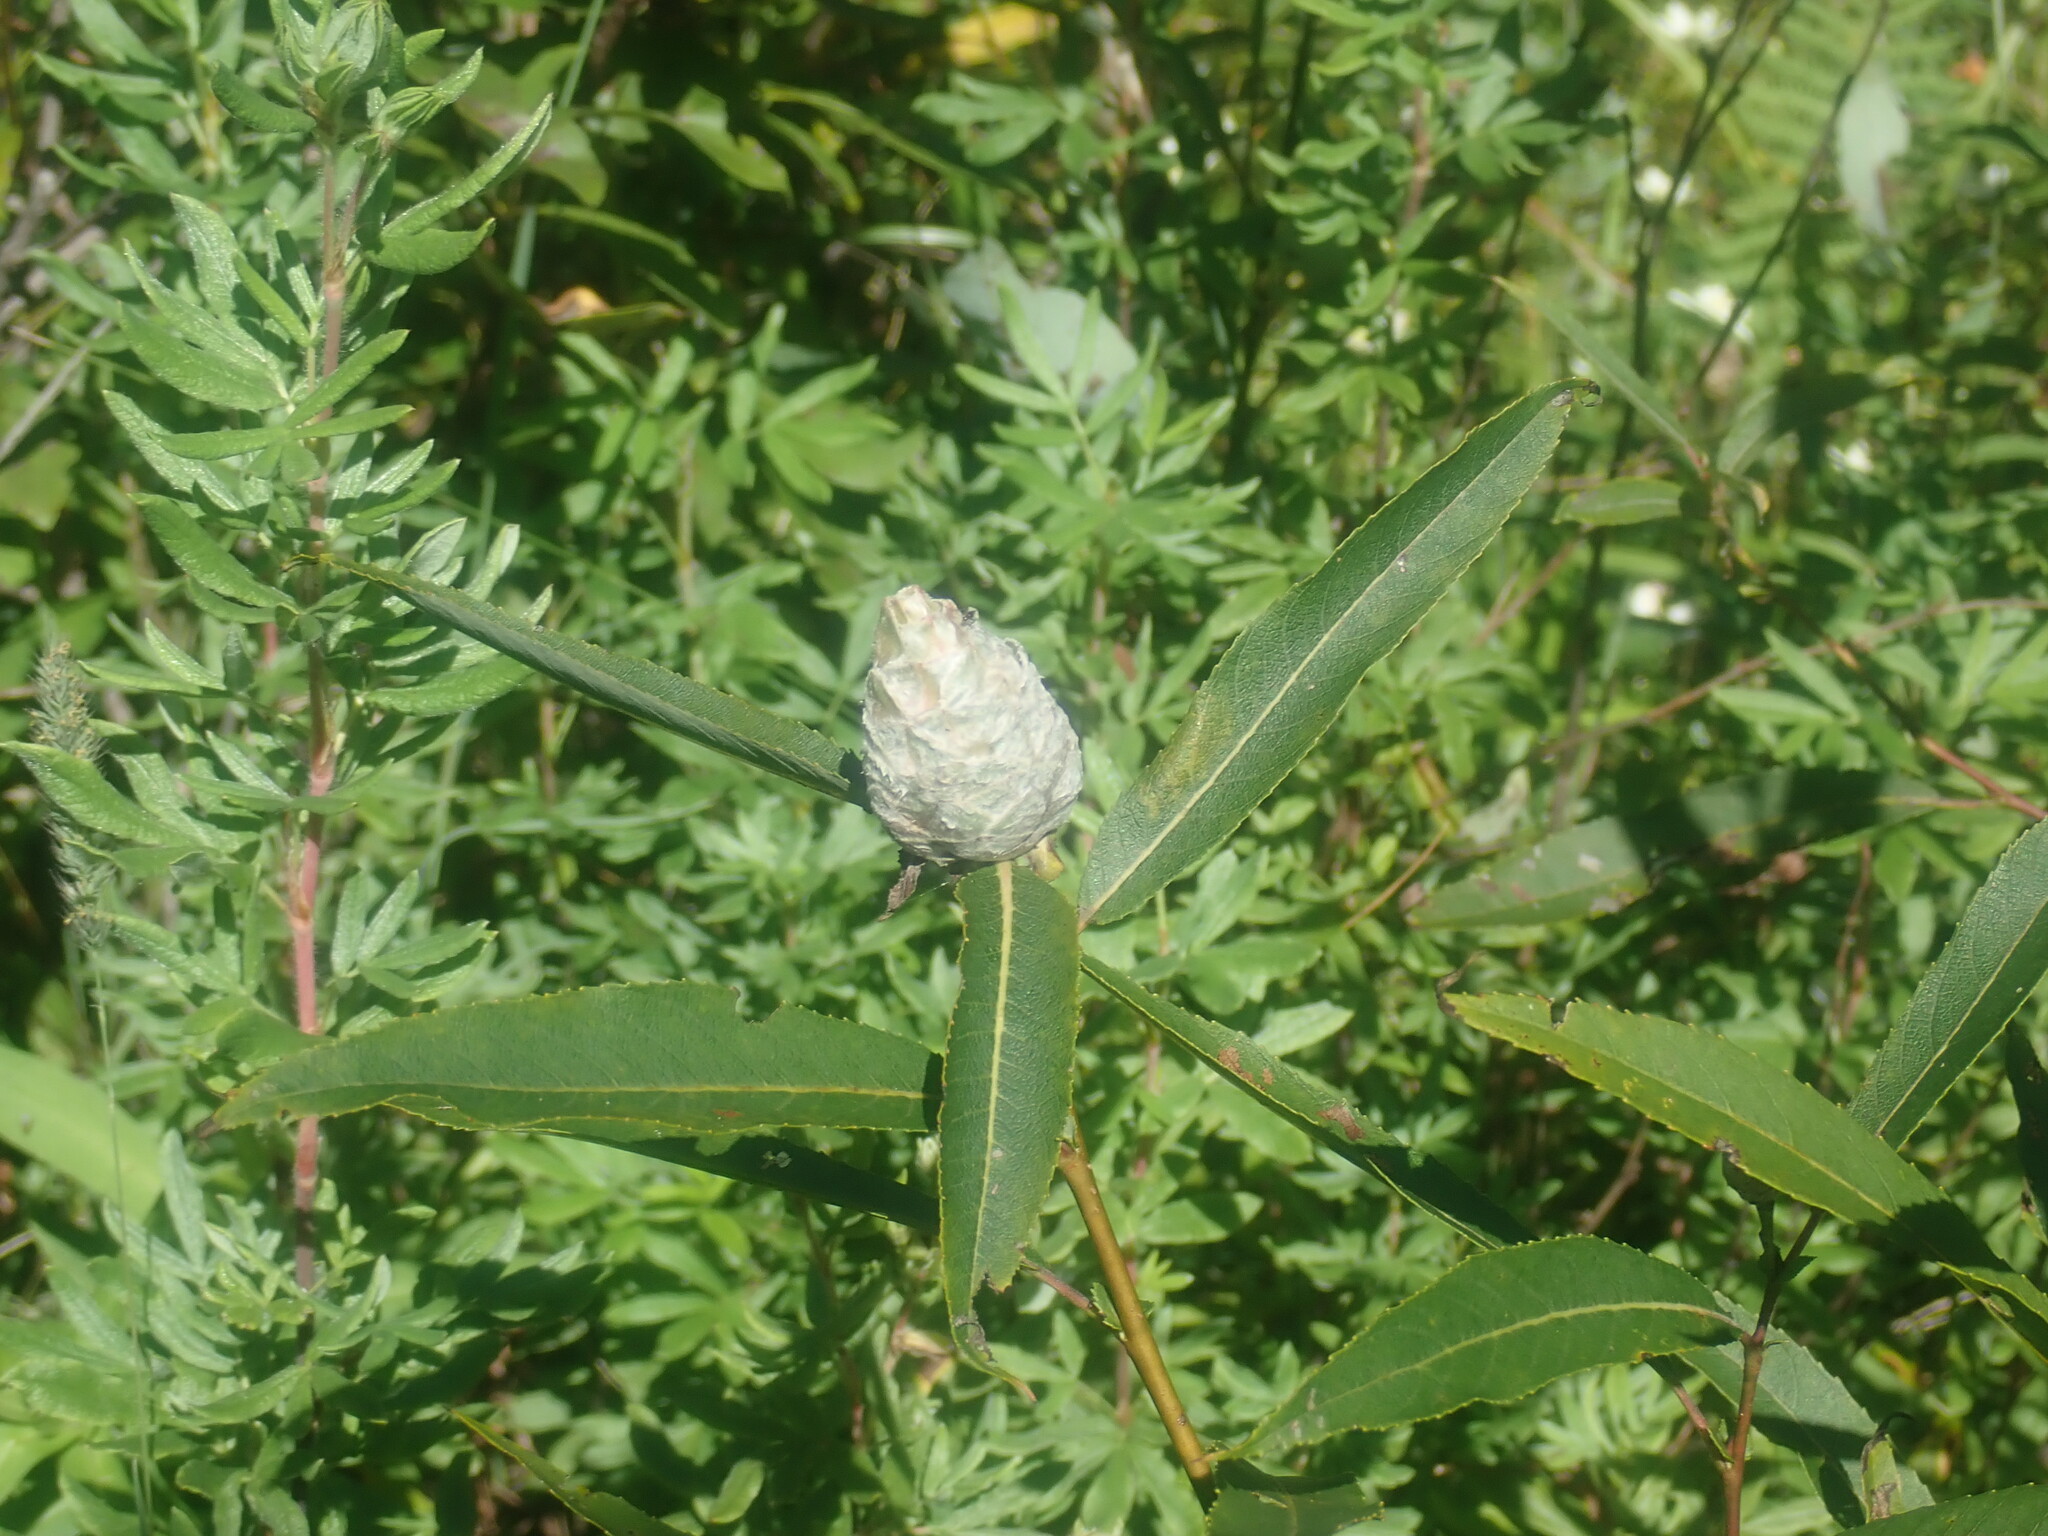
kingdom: Animalia
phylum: Arthropoda
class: Insecta
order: Diptera
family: Cecidomyiidae
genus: Rabdophaga
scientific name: Rabdophaga strobiloides
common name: Willow pinecone gall midge
